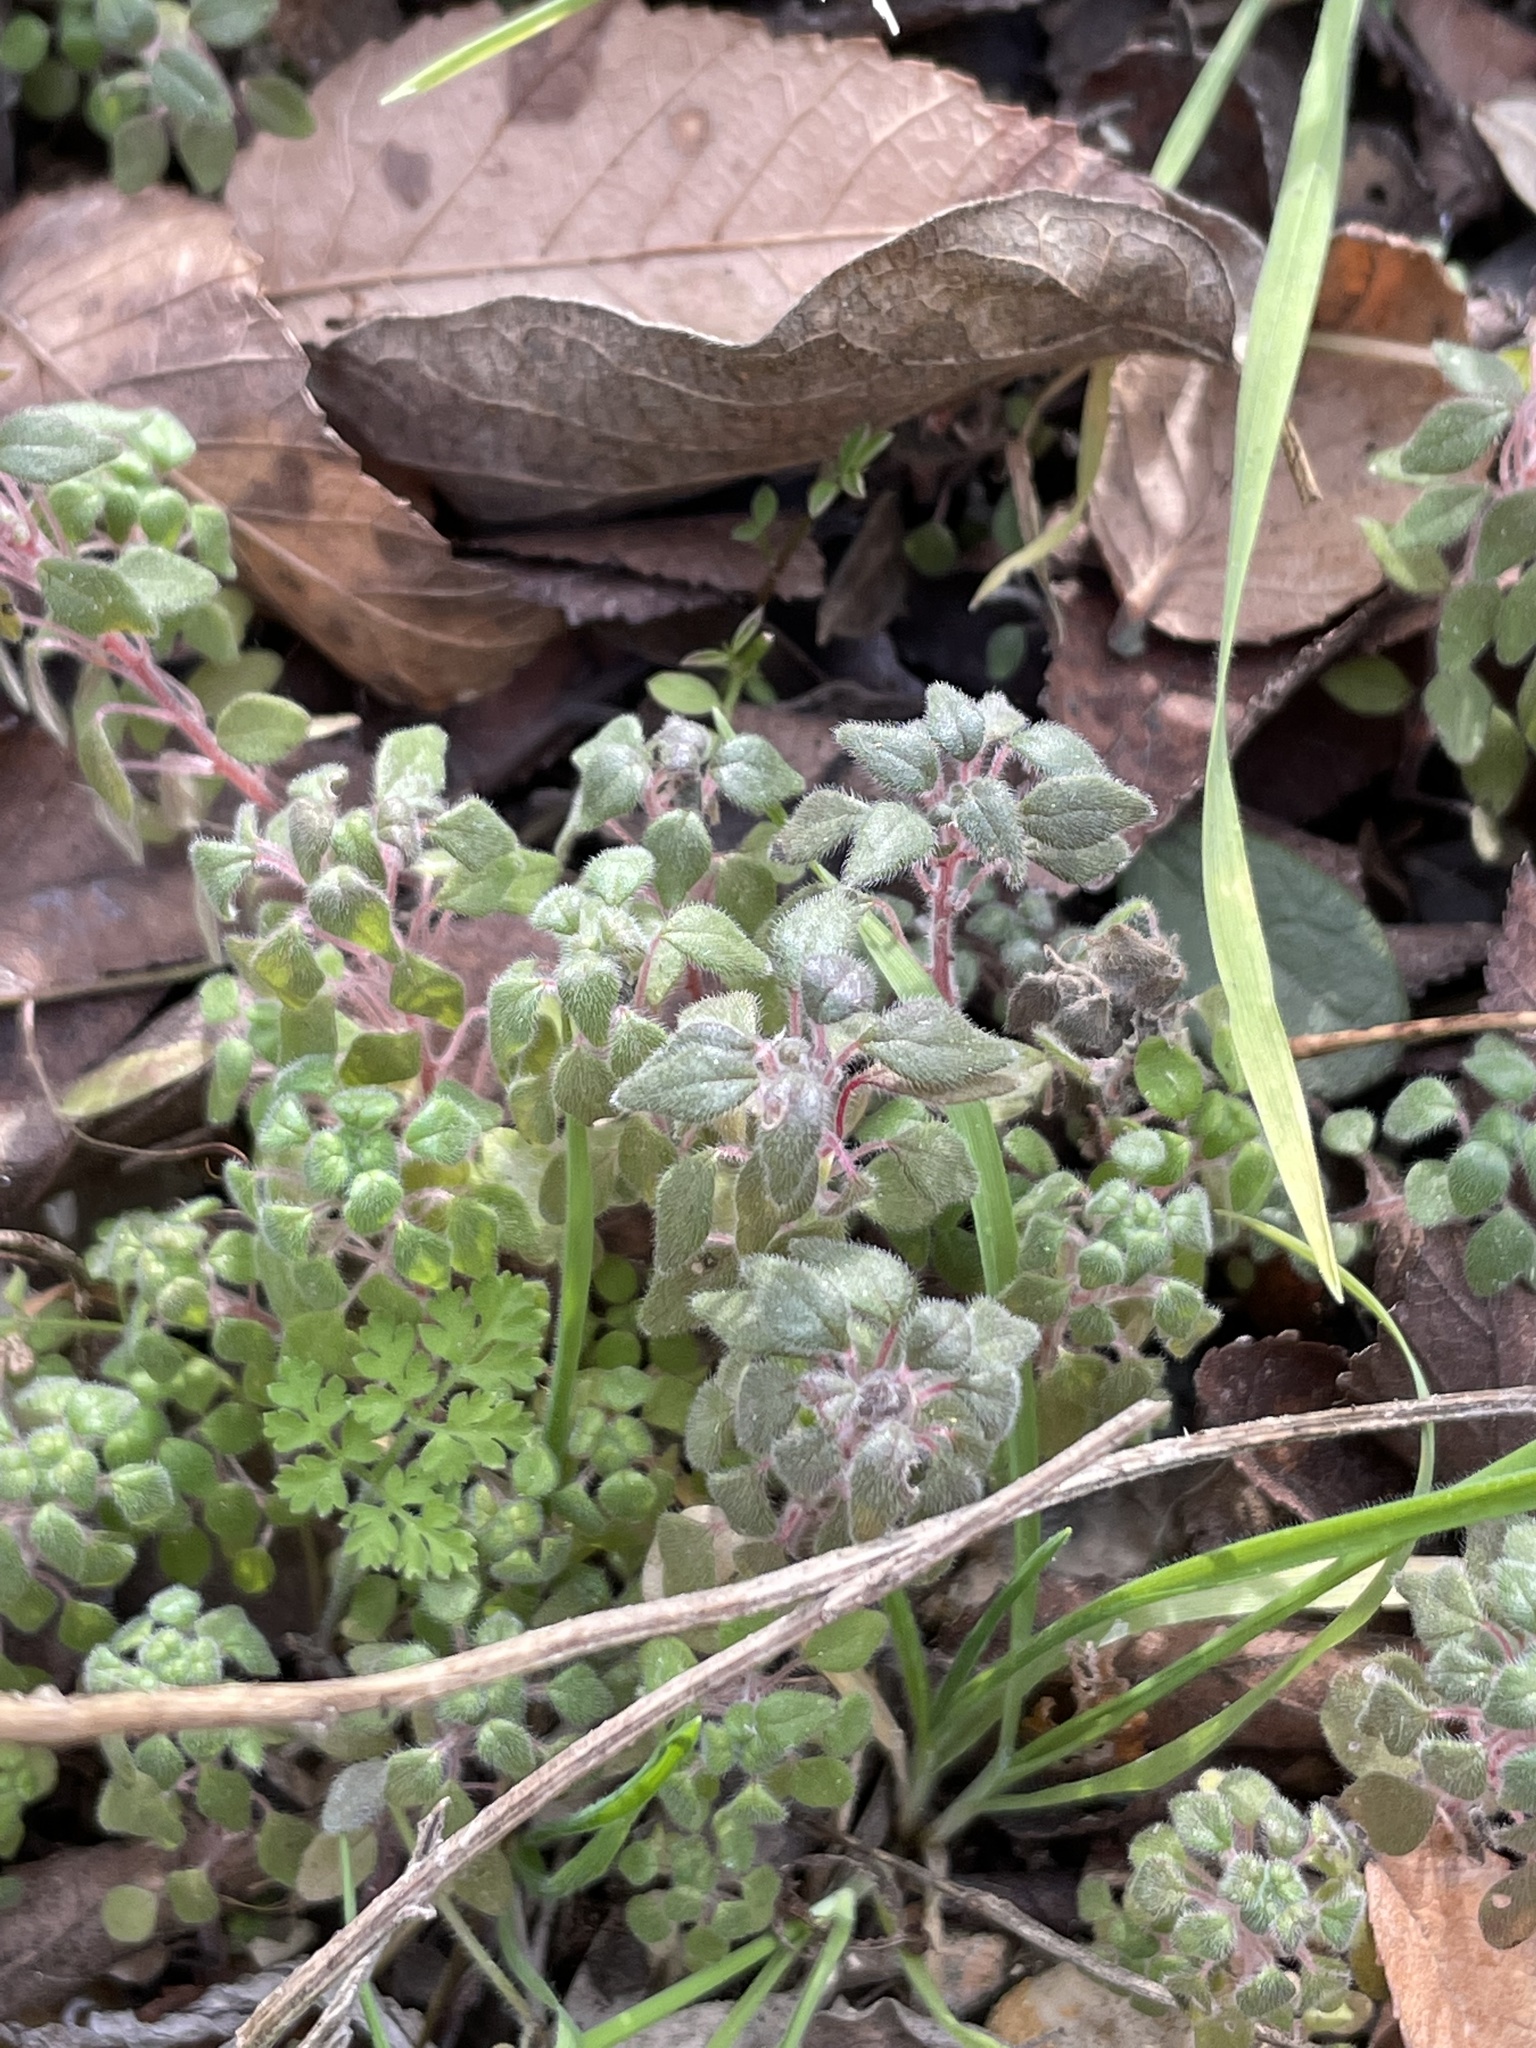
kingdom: Plantae
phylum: Tracheophyta
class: Magnoliopsida
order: Rosales
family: Urticaceae
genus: Parietaria
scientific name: Parietaria pensylvanica
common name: Pennsylvania pellitory
